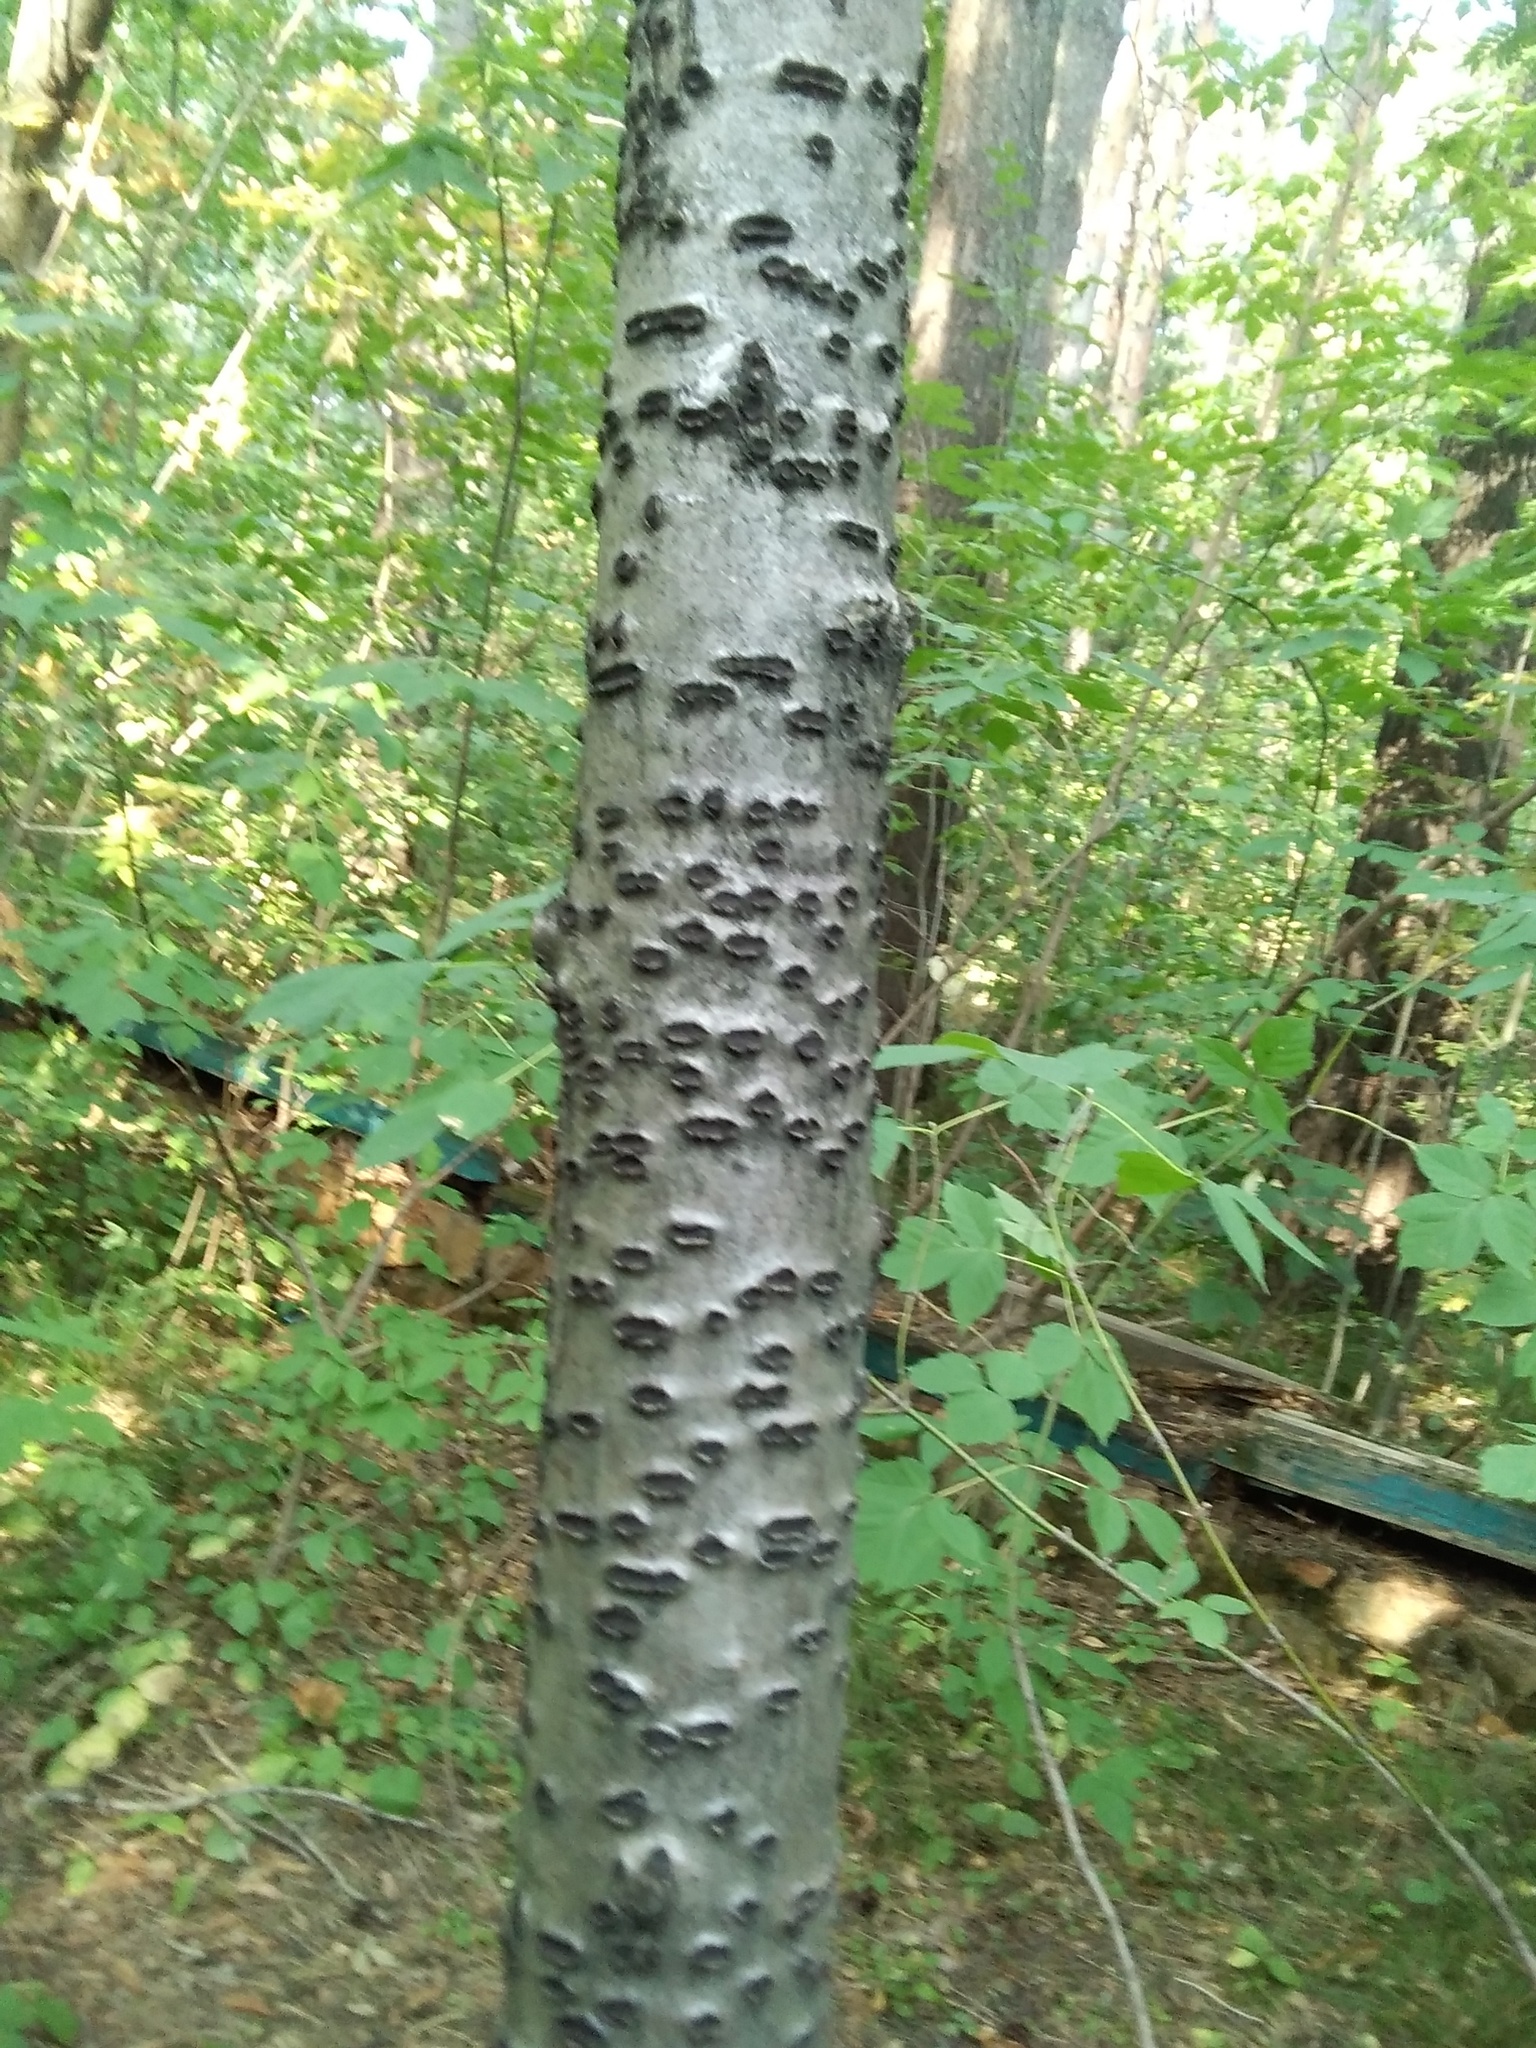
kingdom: Fungi
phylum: Ascomycota
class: Sordariomycetes
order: Xylariales
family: Graphostromataceae
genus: Biscogniauxia
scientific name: Biscogniauxia marginata
